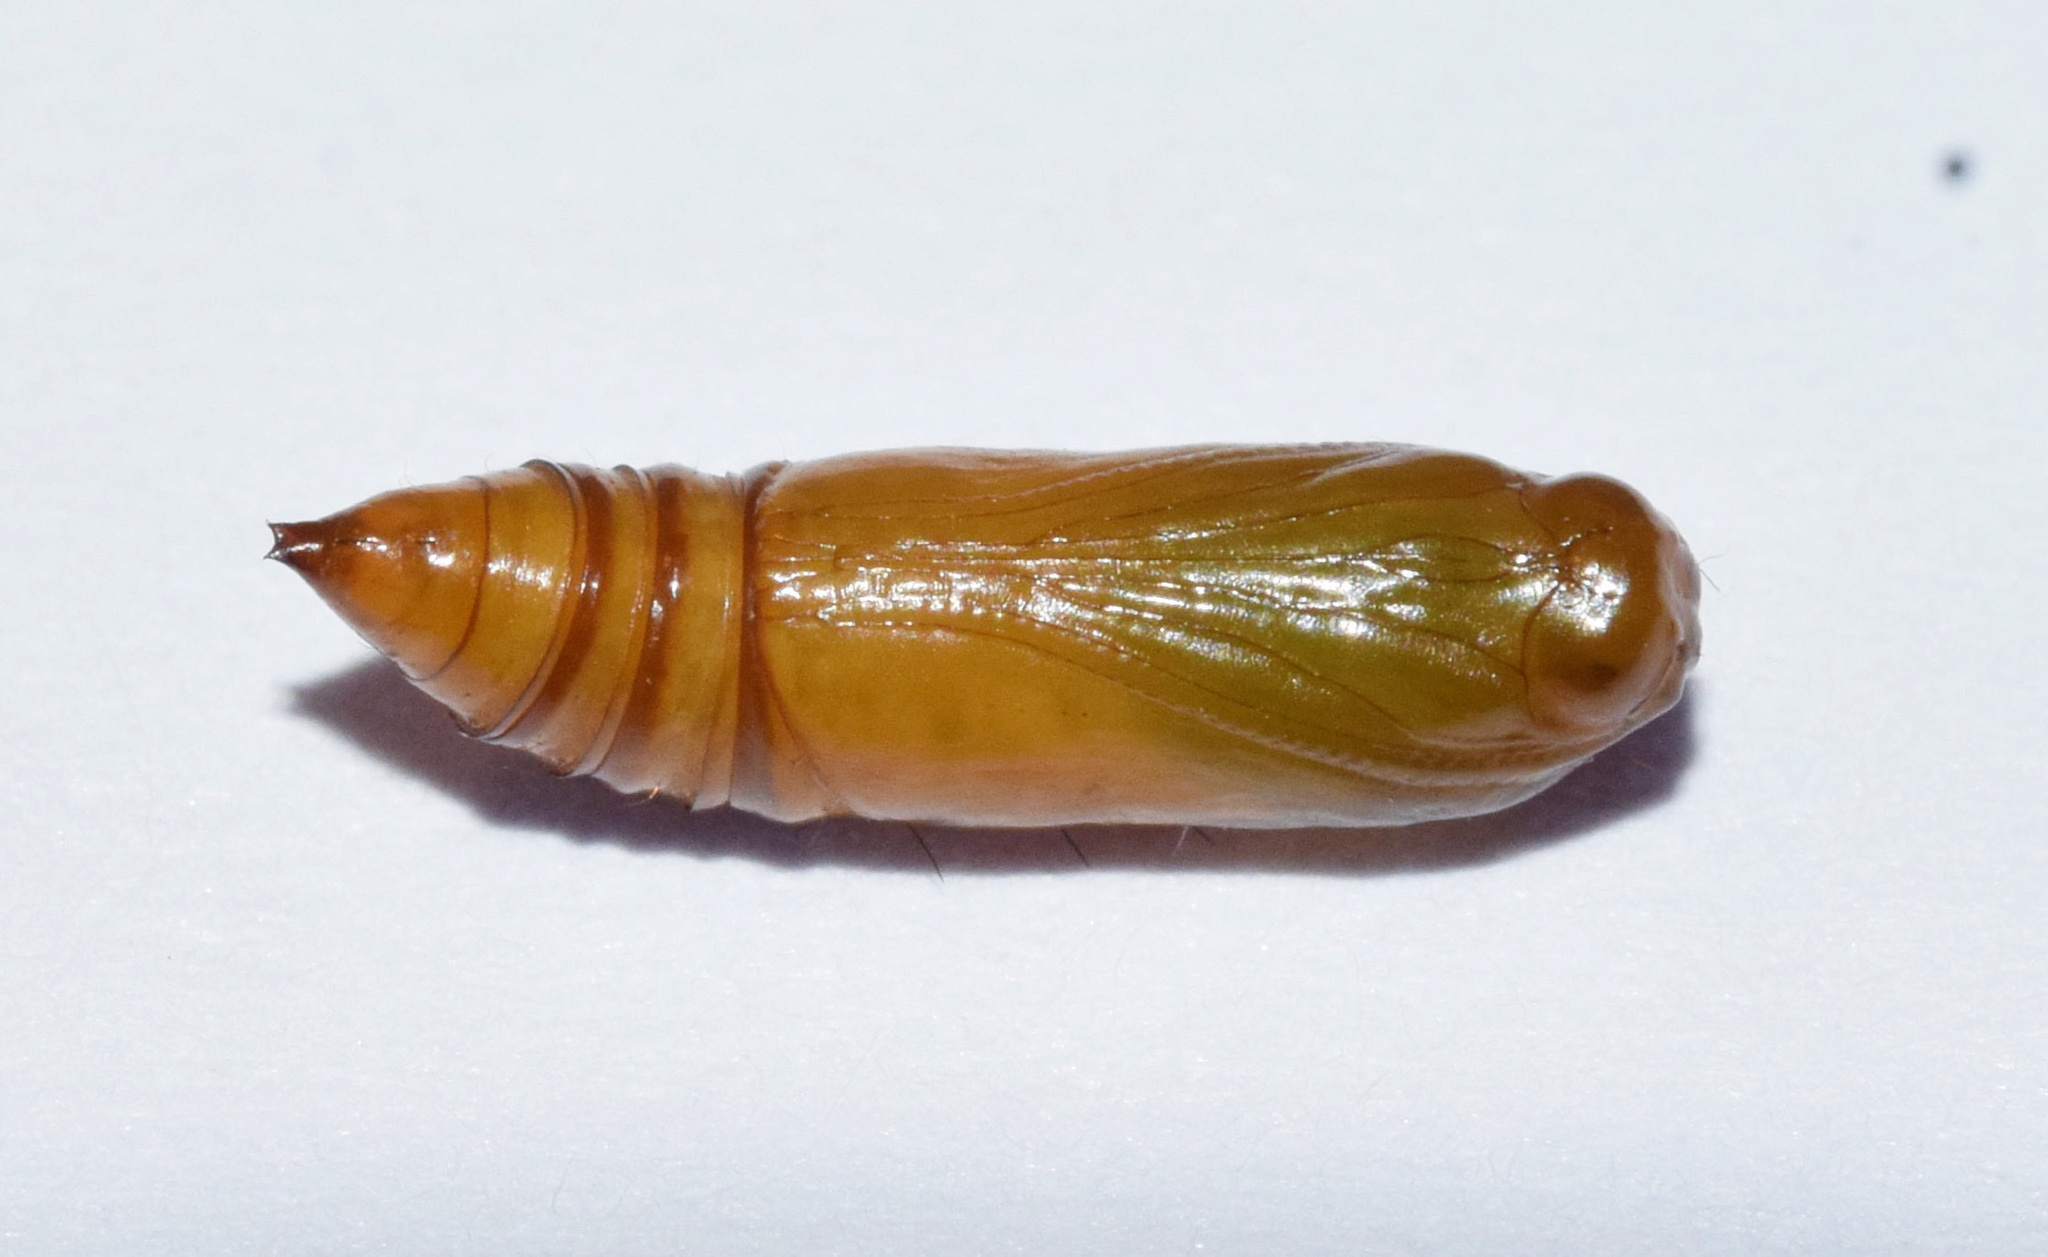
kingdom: Animalia
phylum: Arthropoda
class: Insecta
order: Lepidoptera
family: Noctuidae
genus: Cerynea
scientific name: Cerynea thermesialis
